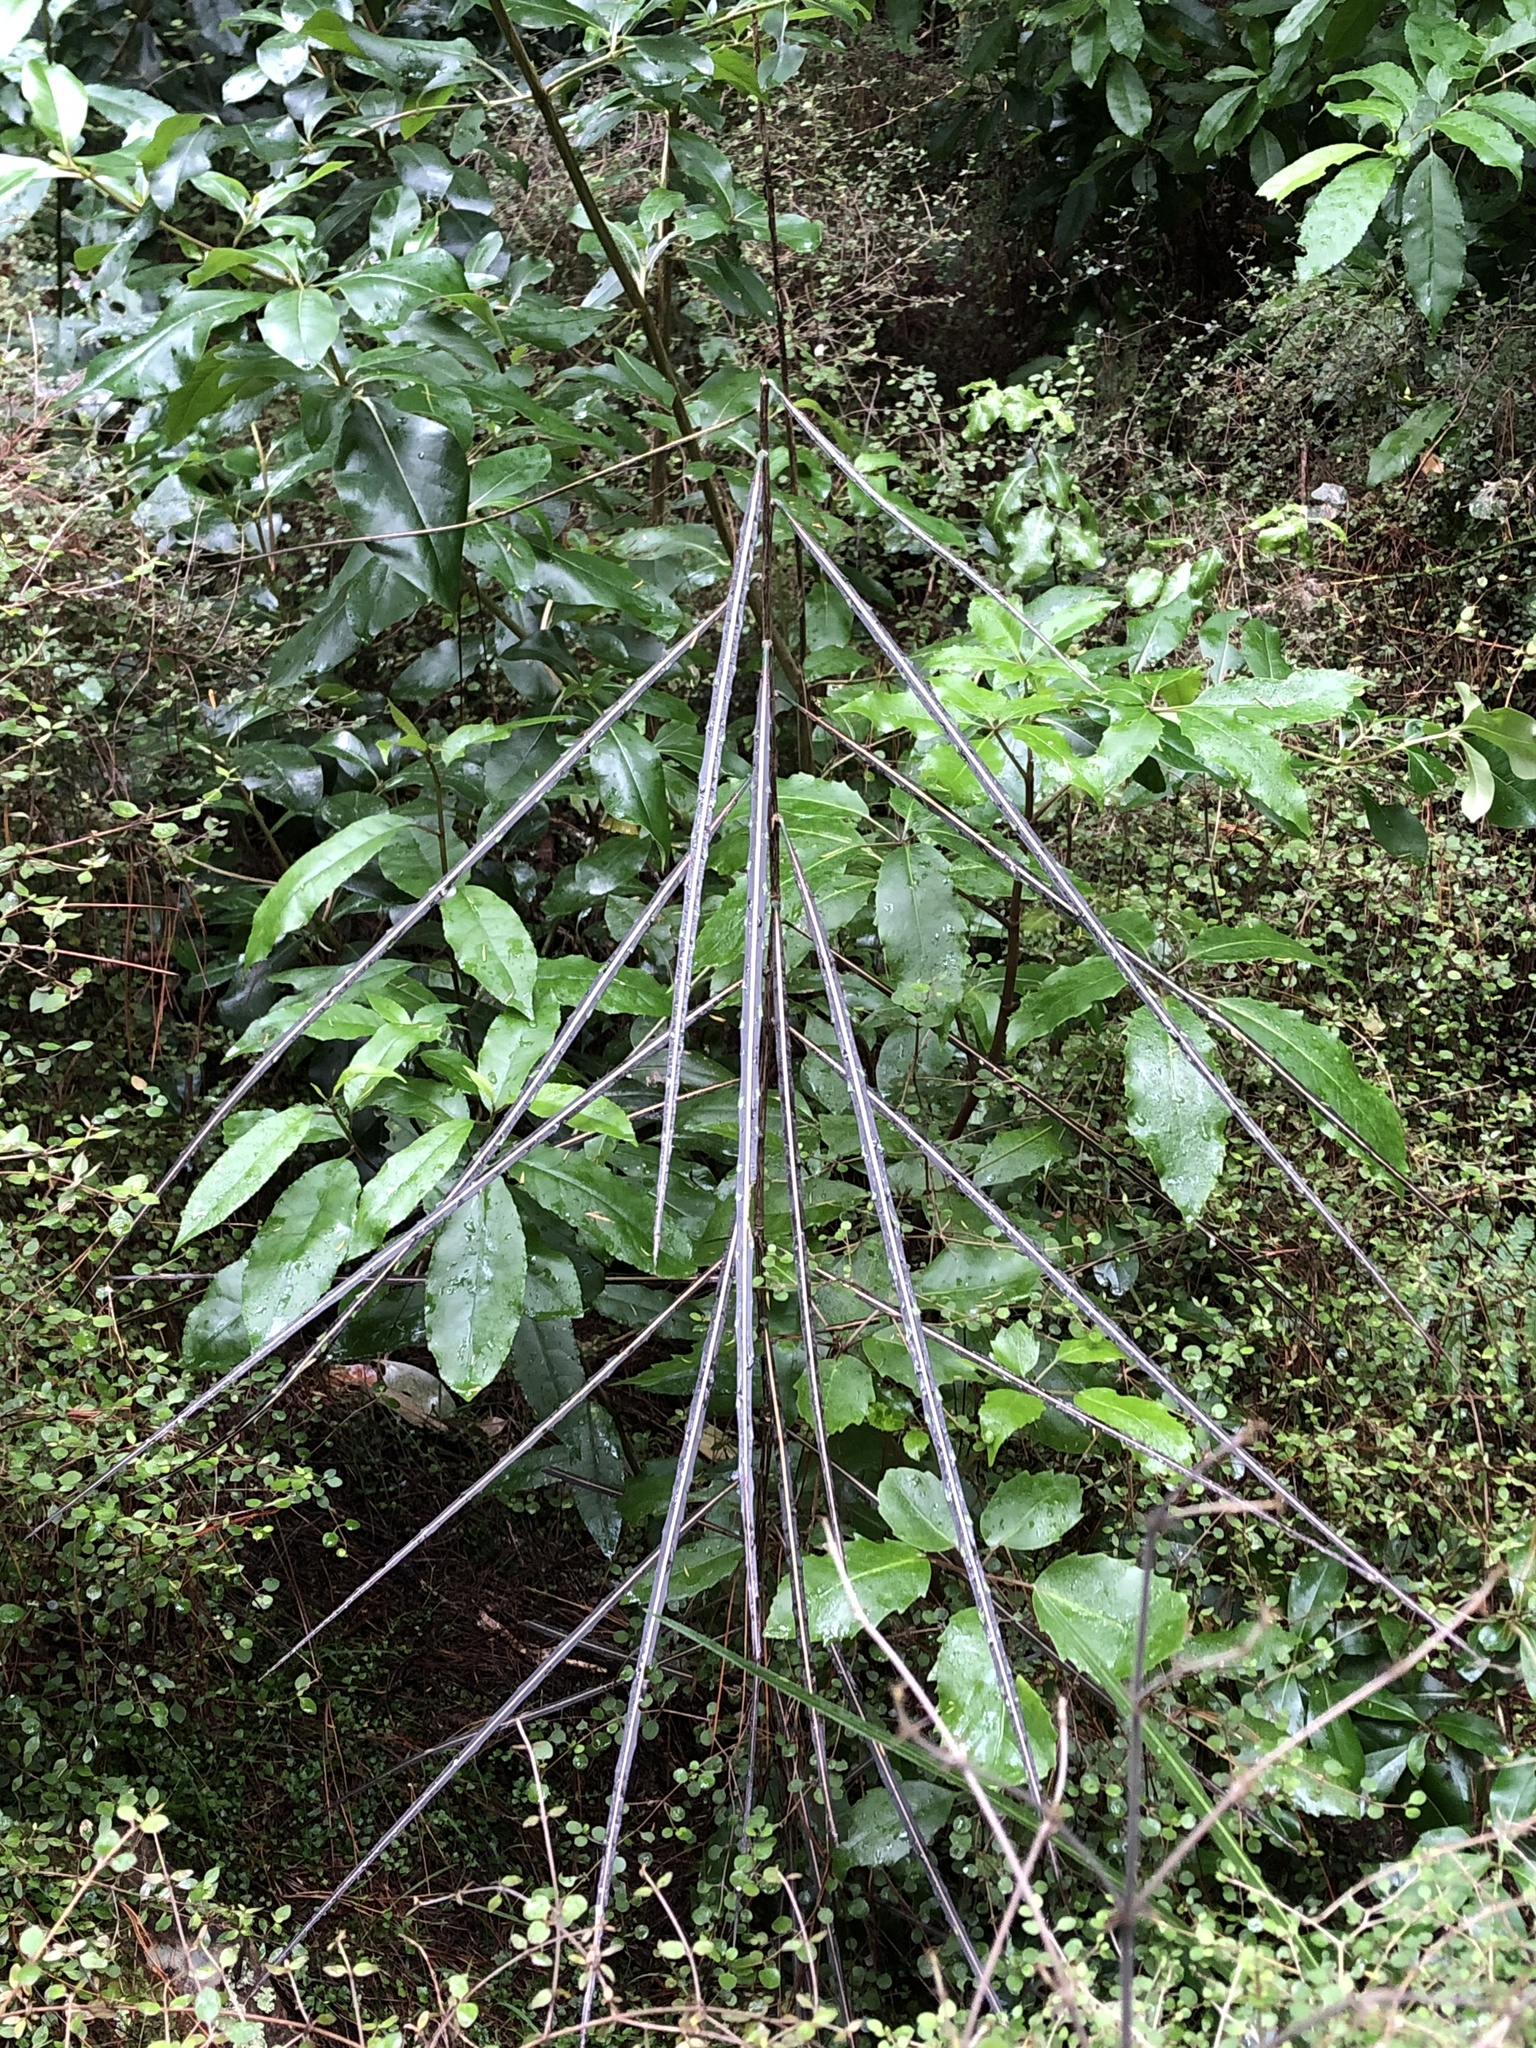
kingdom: Plantae
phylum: Tracheophyta
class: Magnoliopsida
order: Apiales
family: Araliaceae
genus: Pseudopanax
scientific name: Pseudopanax crassifolius
